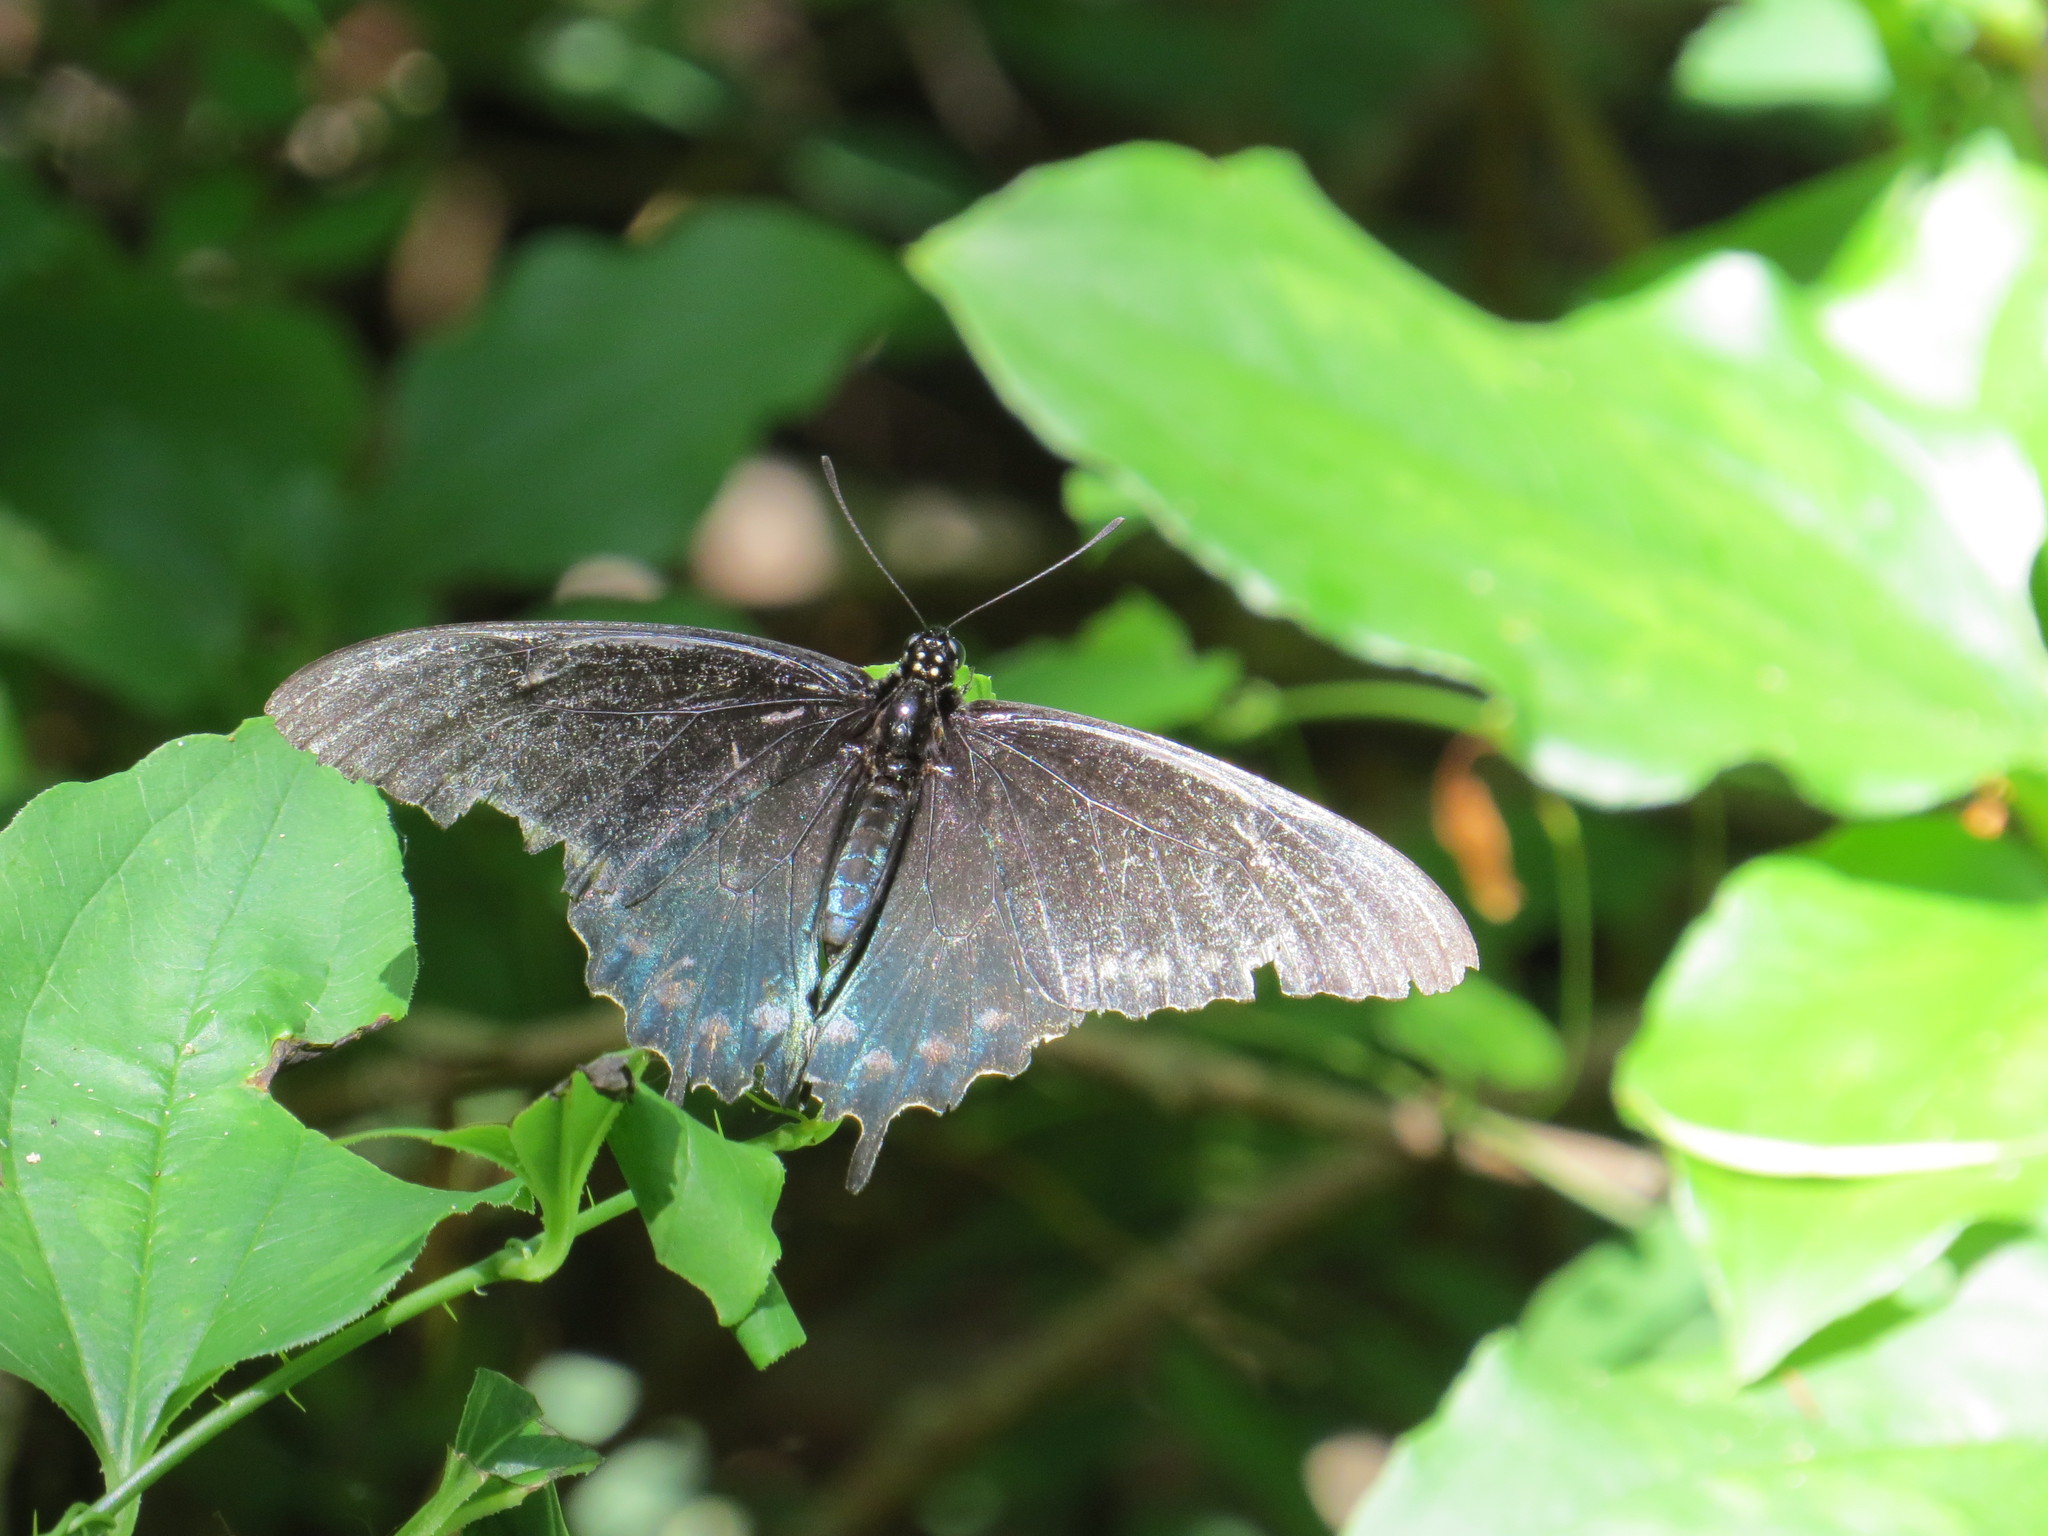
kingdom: Animalia
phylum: Arthropoda
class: Insecta
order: Lepidoptera
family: Papilionidae
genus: Battus
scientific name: Battus philenor
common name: Pipevine swallowtail
